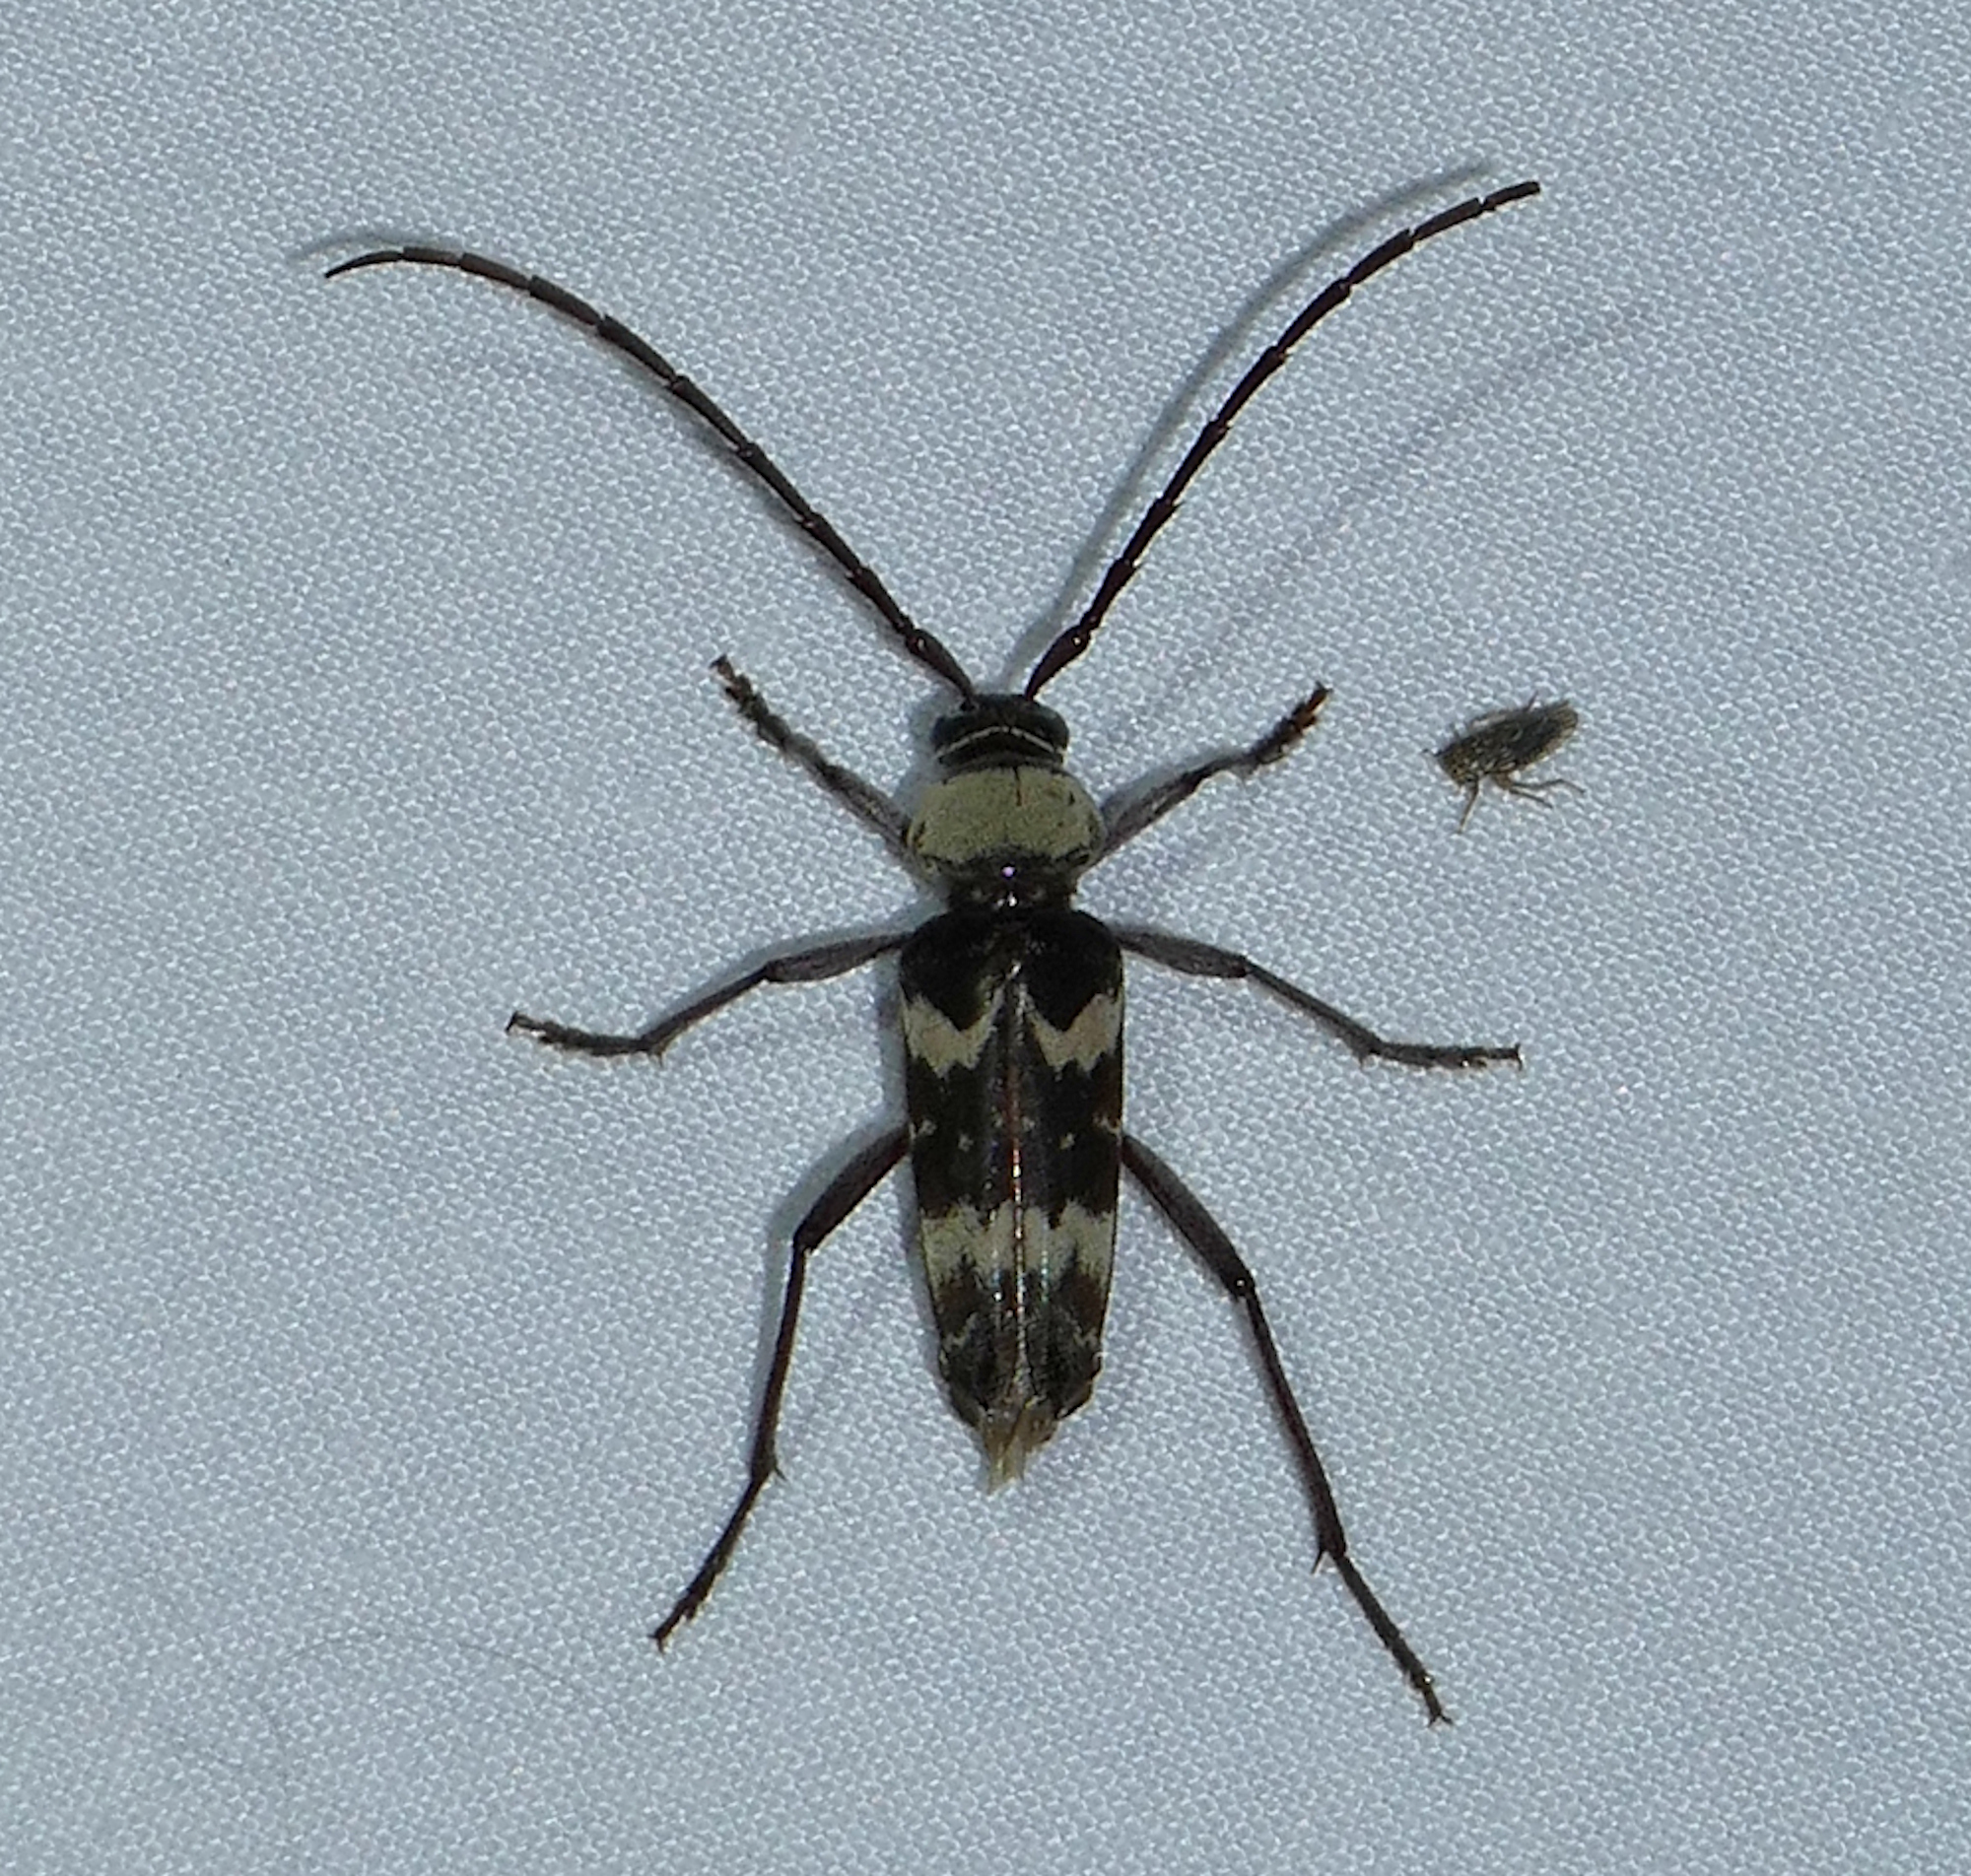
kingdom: Animalia
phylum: Arthropoda
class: Insecta
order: Coleoptera
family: Cerambycidae
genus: Megacyllene
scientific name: Megacyllene antennata
